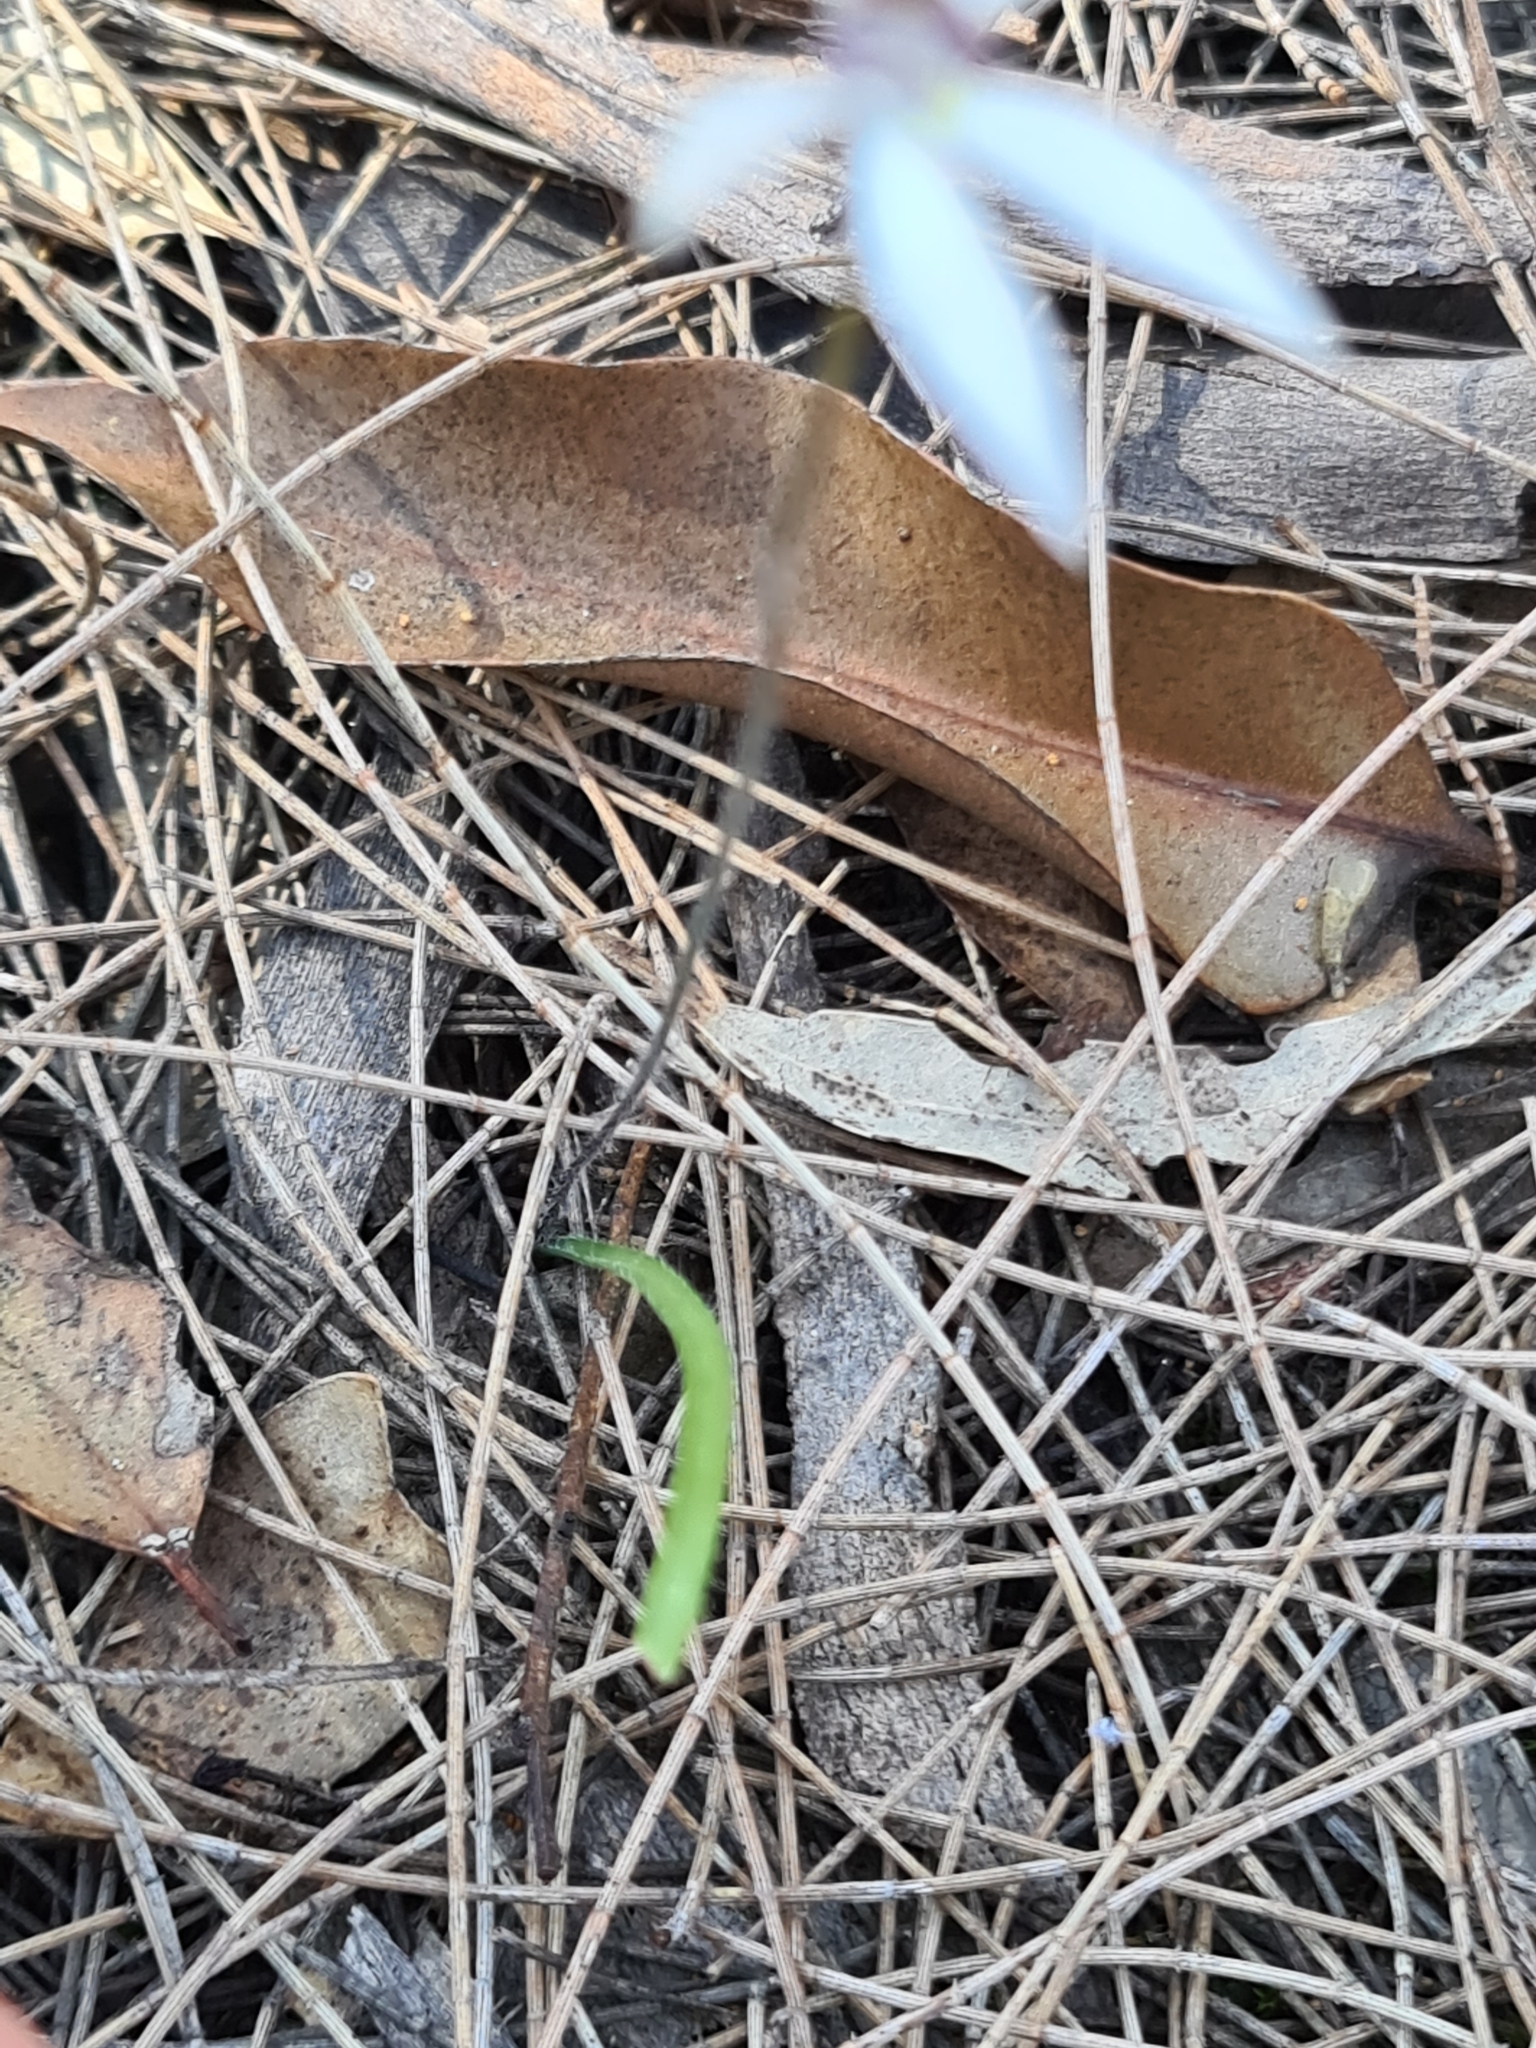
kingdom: Plantae
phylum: Tracheophyta
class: Liliopsida
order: Asparagales
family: Orchidaceae
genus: Caladenia
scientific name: Caladenia saccharata
